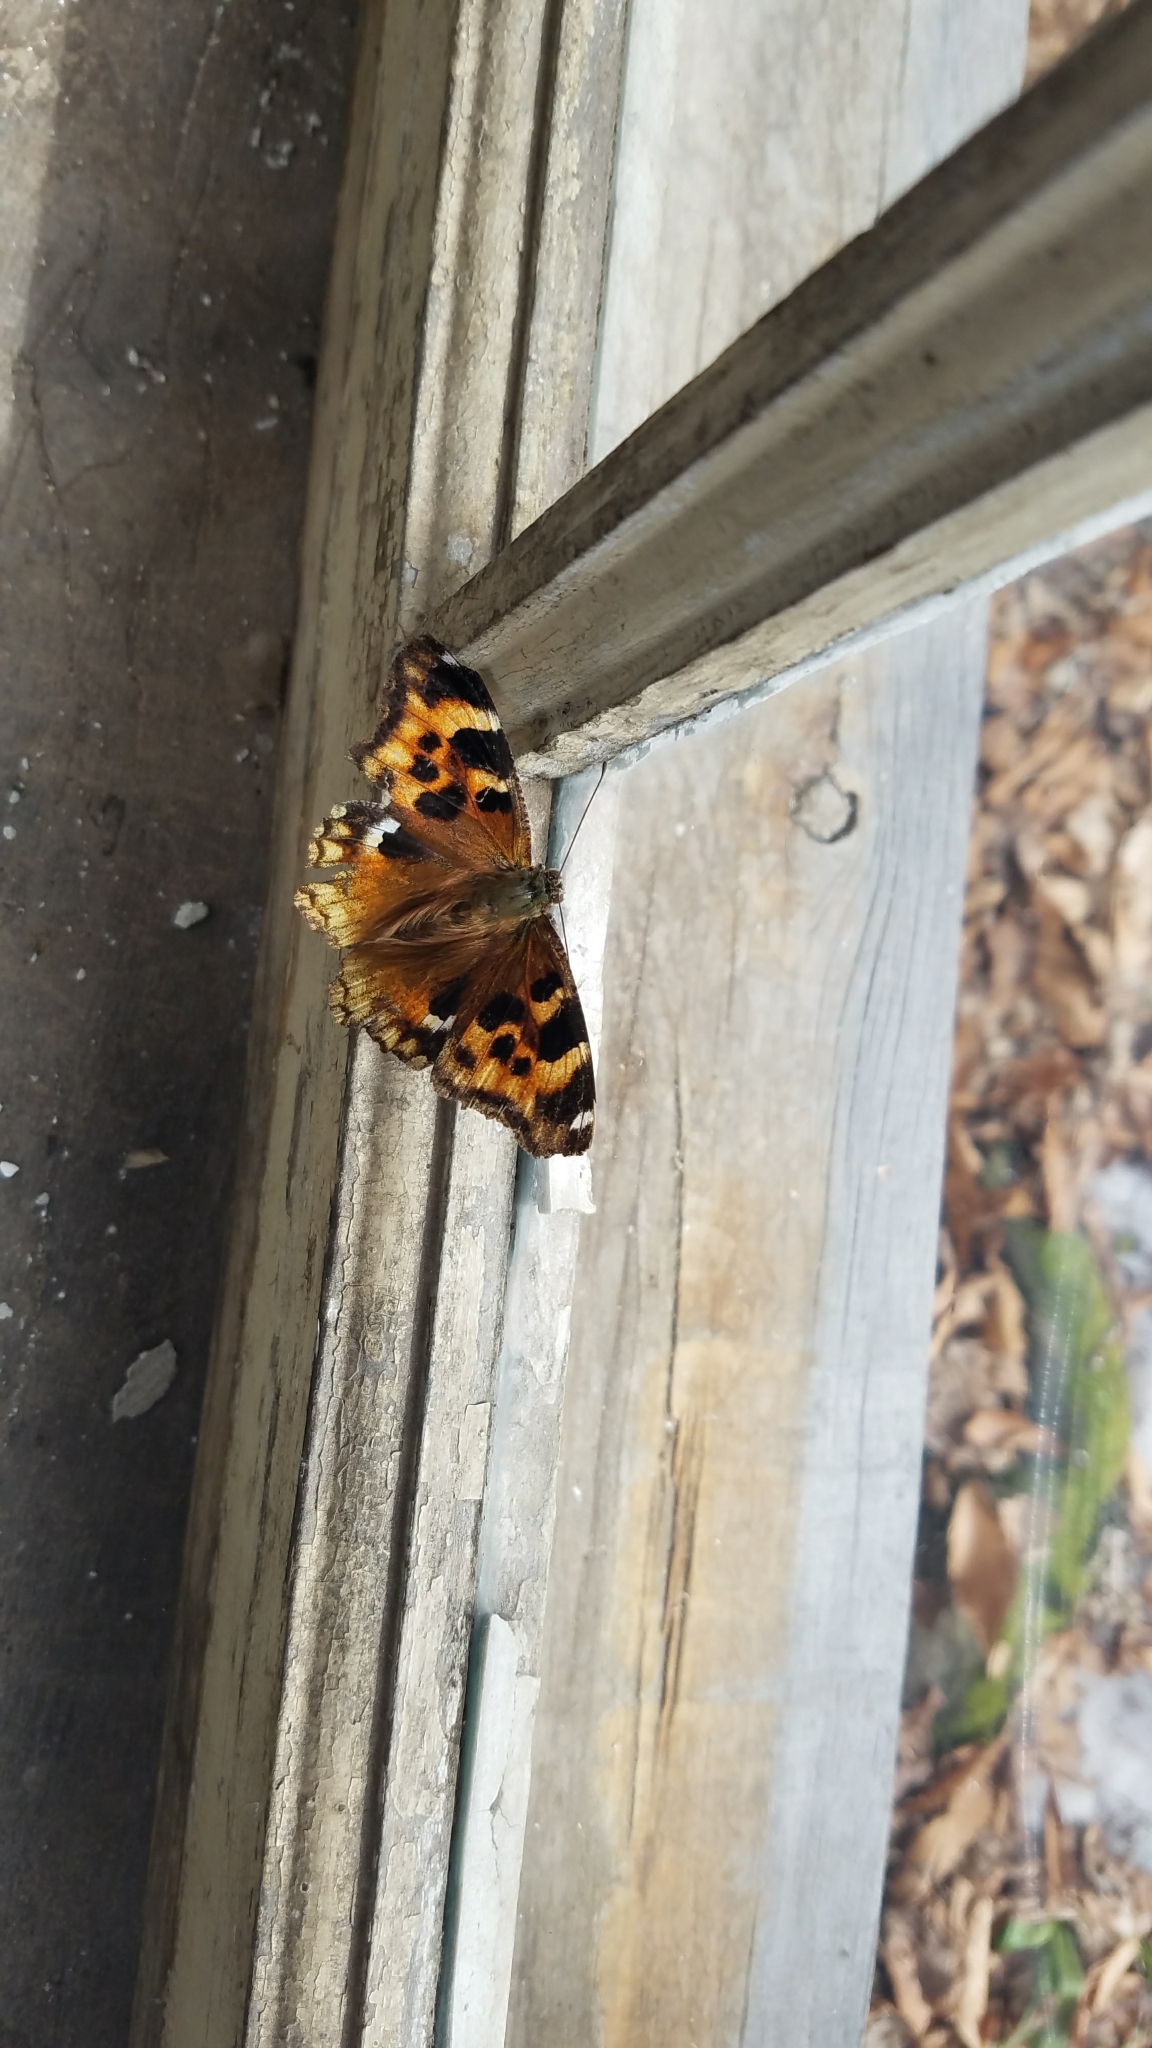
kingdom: Animalia
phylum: Arthropoda
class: Insecta
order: Lepidoptera
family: Nymphalidae
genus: Polygonia
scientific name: Polygonia vaualbum
